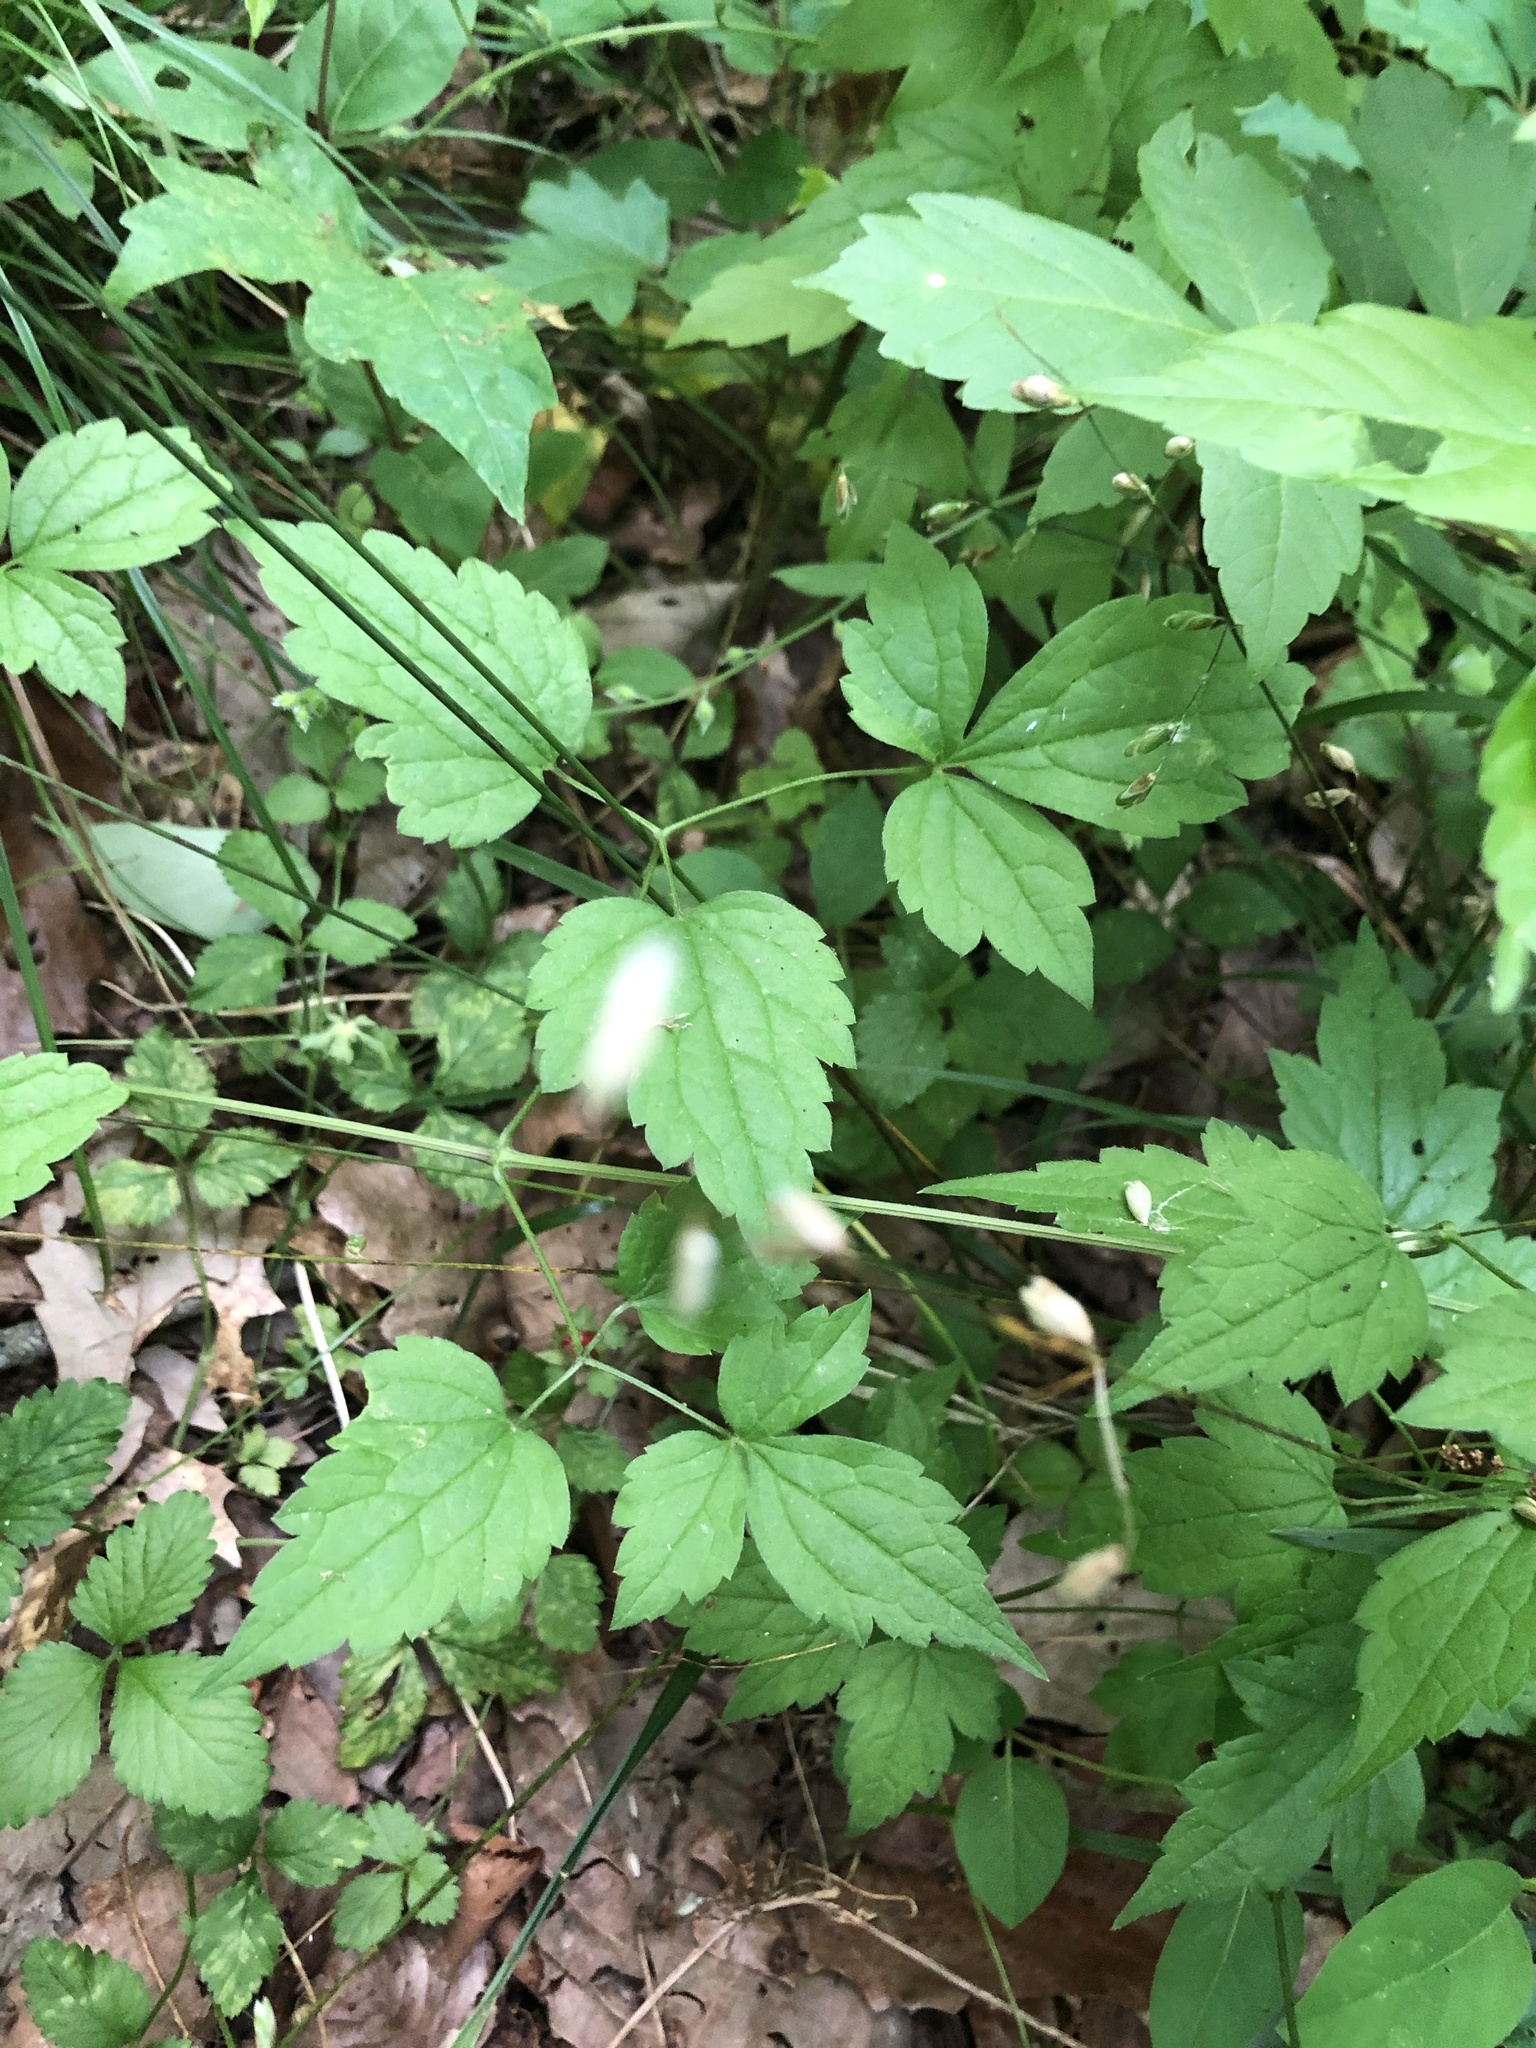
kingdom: Plantae
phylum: Tracheophyta
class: Magnoliopsida
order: Ranunculales
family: Ranunculaceae
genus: Clematis
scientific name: Clematis catesbyana
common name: Virgin's bower
